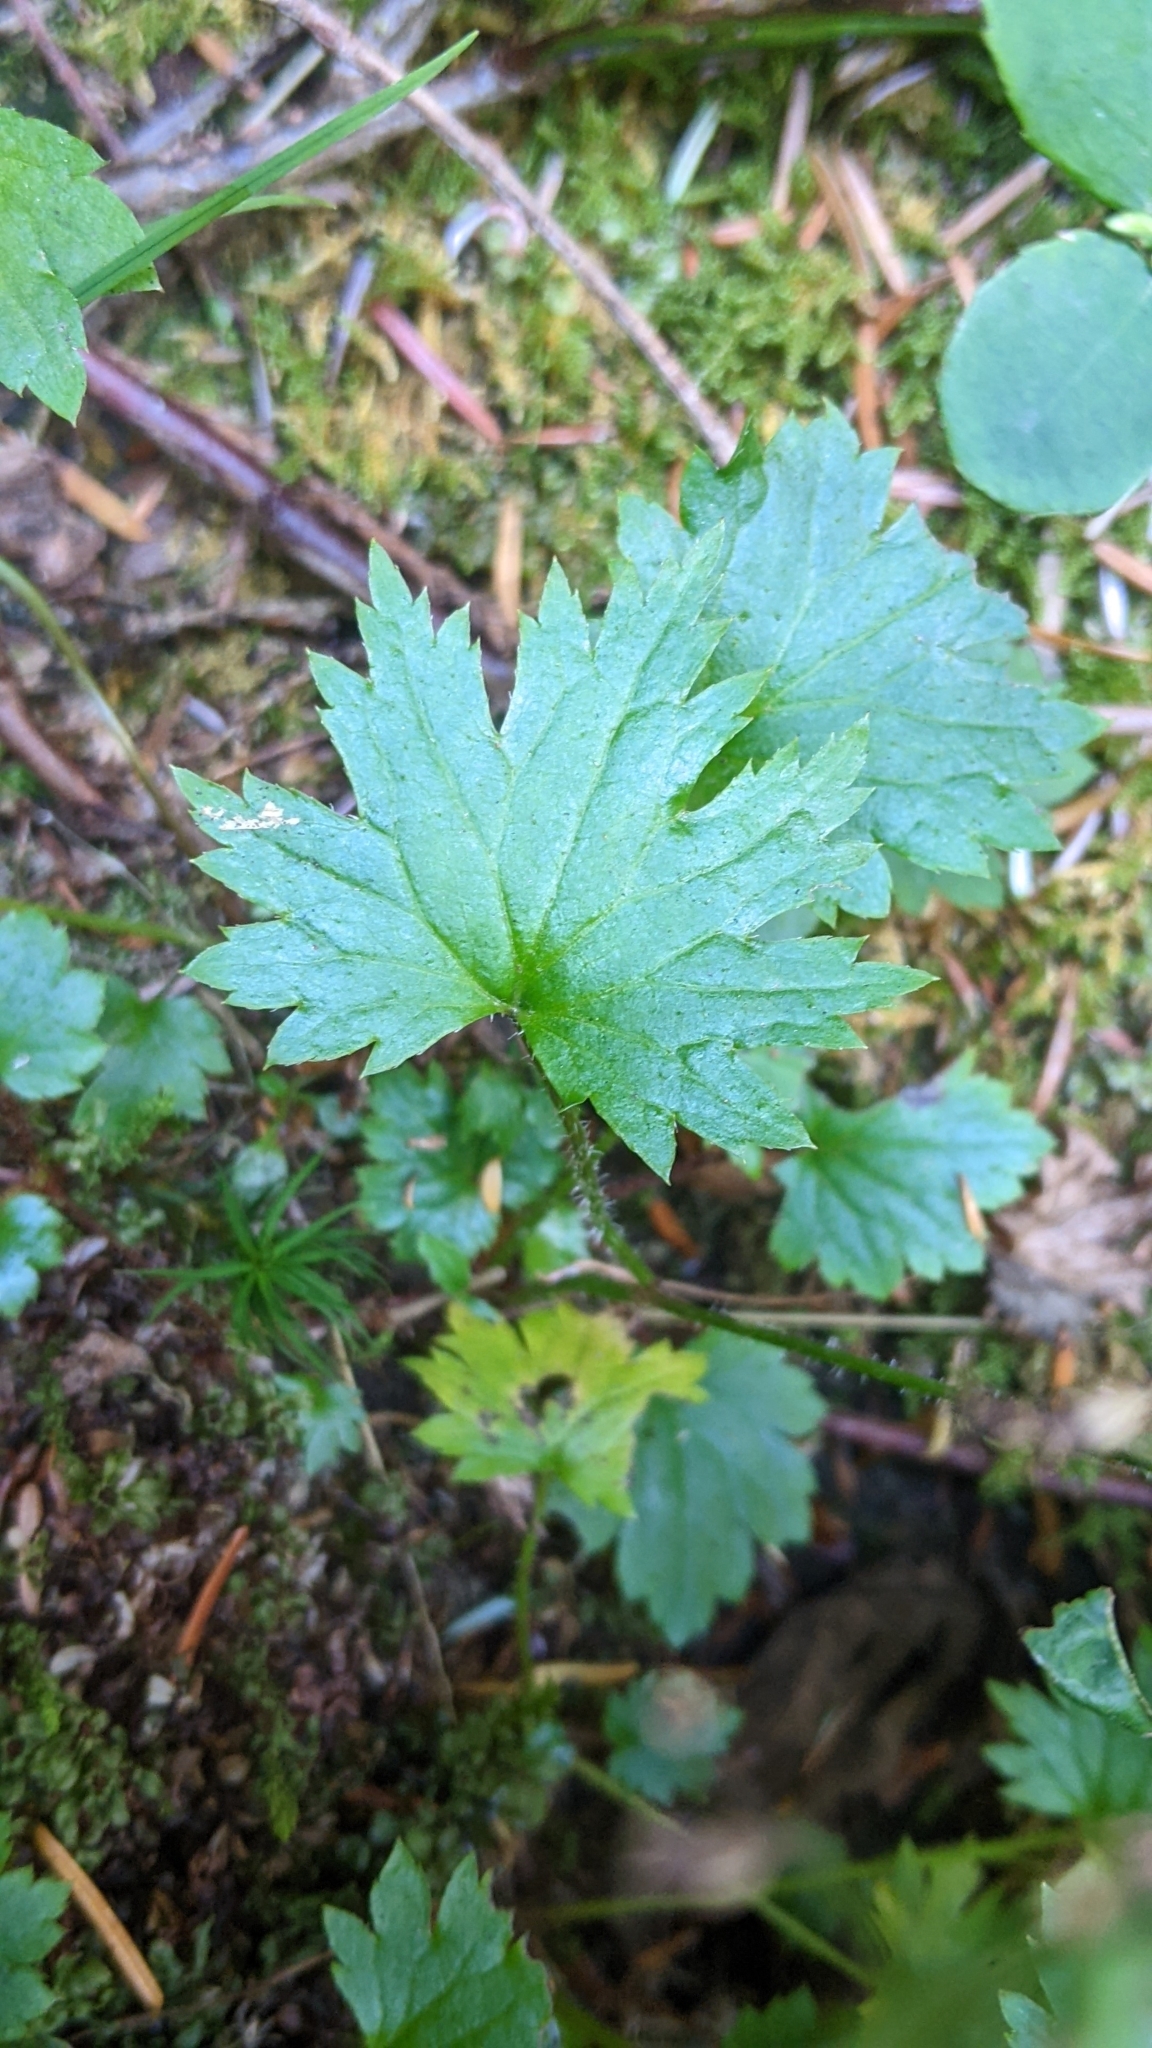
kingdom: Plantae
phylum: Tracheophyta
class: Magnoliopsida
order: Saxifragales
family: Saxifragaceae
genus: Boykinia
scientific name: Boykinia occidentalis
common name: Coast boykinia
